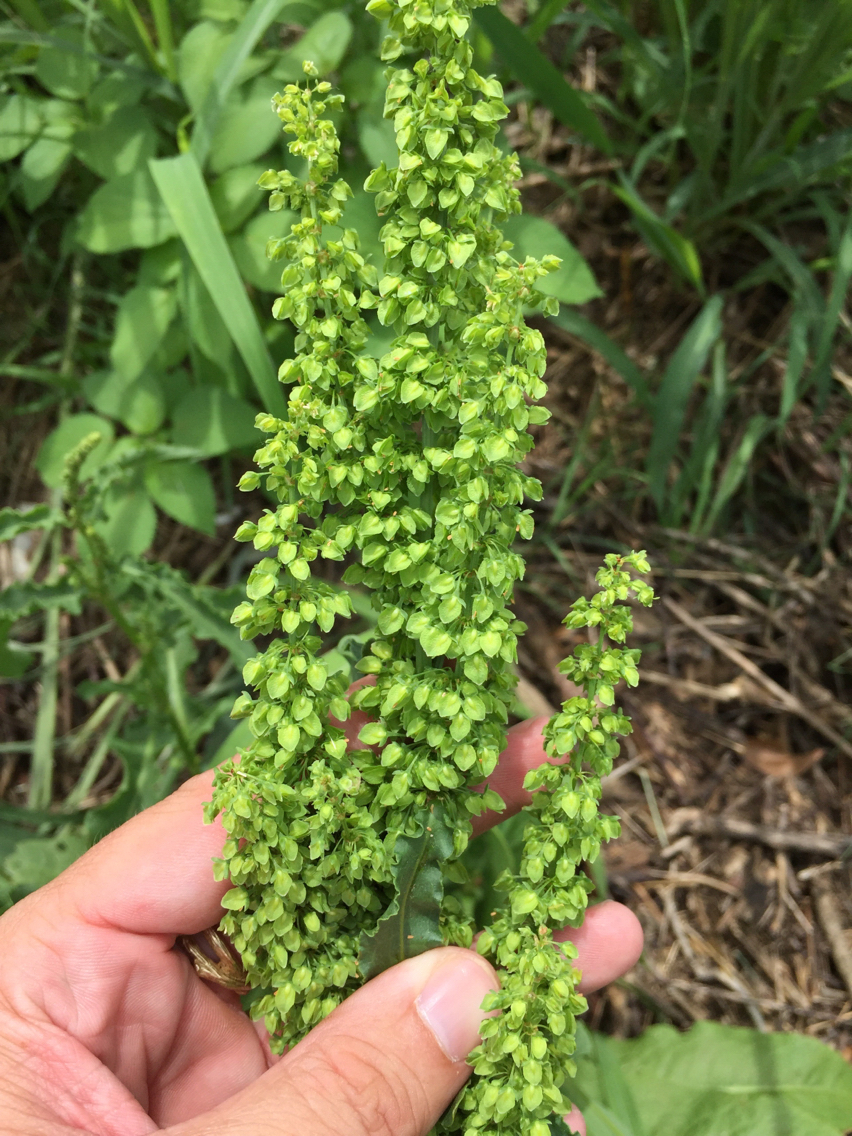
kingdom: Plantae
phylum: Tracheophyta
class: Magnoliopsida
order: Caryophyllales
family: Polygonaceae
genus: Rumex
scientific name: Rumex crispus
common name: Curled dock
